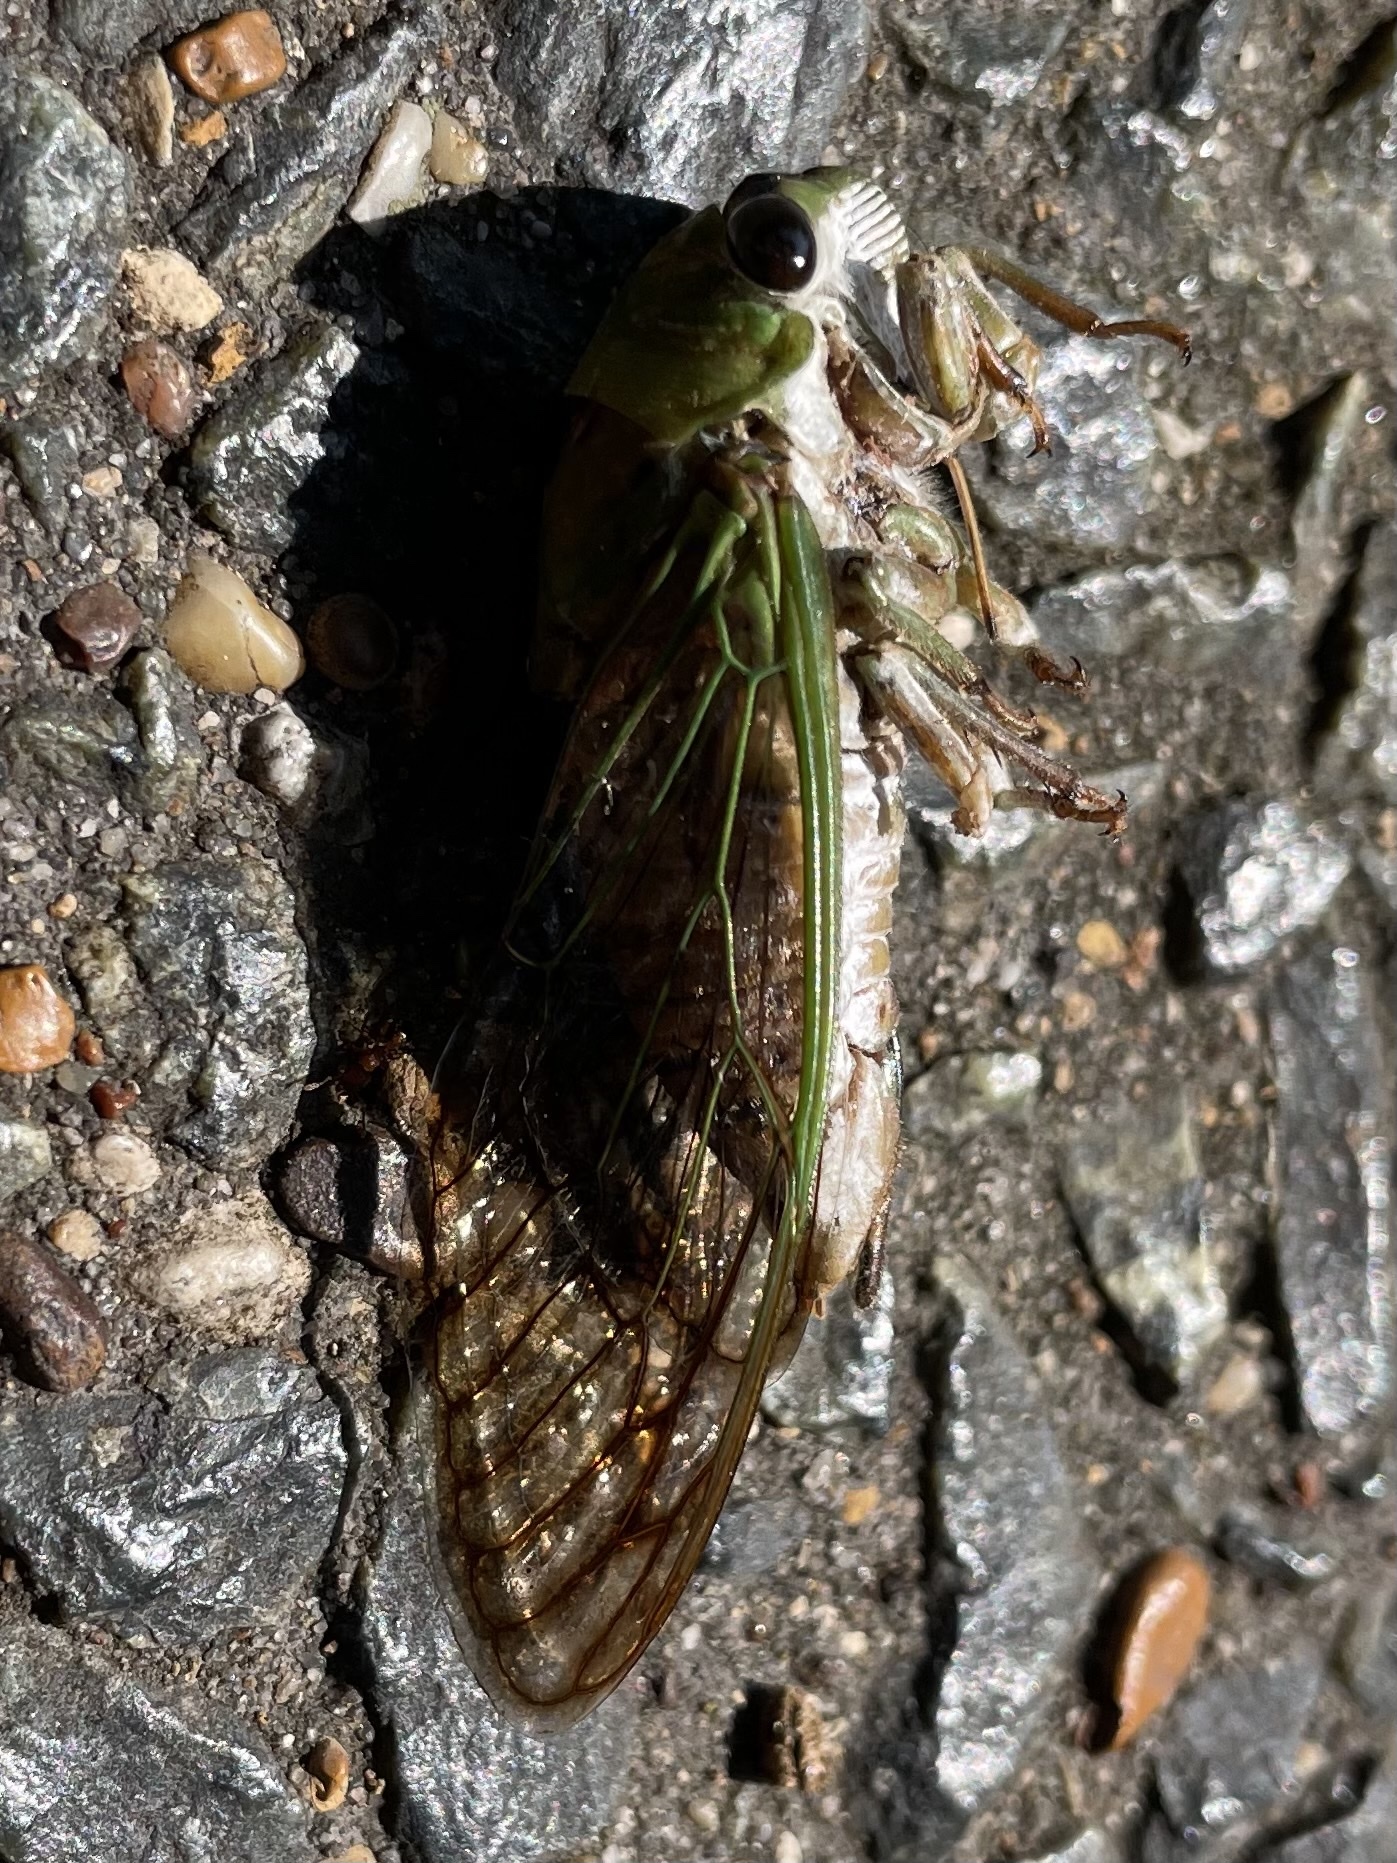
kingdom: Animalia
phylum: Arthropoda
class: Insecta
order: Hemiptera
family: Cicadidae
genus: Neotibicen
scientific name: Neotibicen superbus
